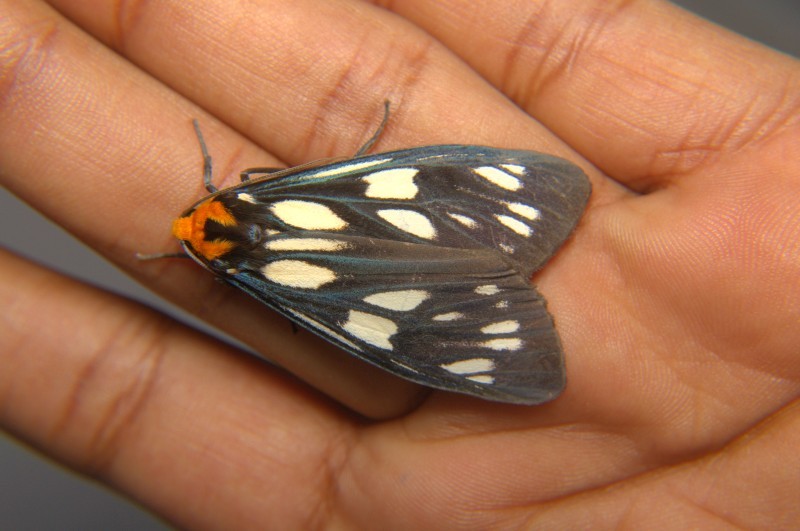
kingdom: Animalia
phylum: Arthropoda
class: Insecta
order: Lepidoptera
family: Erebidae
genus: Macrobrochis
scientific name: Macrobrochis gigas
